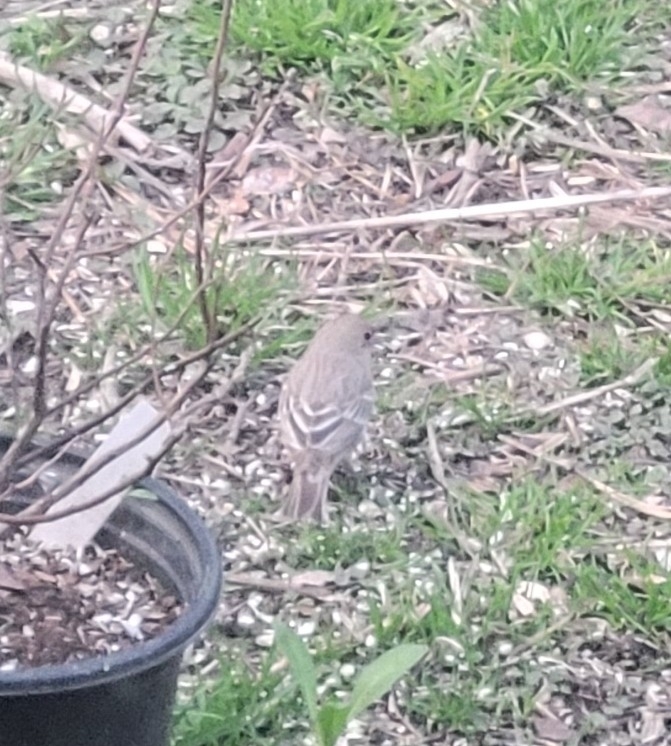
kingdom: Animalia
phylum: Chordata
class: Aves
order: Passeriformes
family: Fringillidae
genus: Haemorhous
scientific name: Haemorhous mexicanus
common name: House finch
